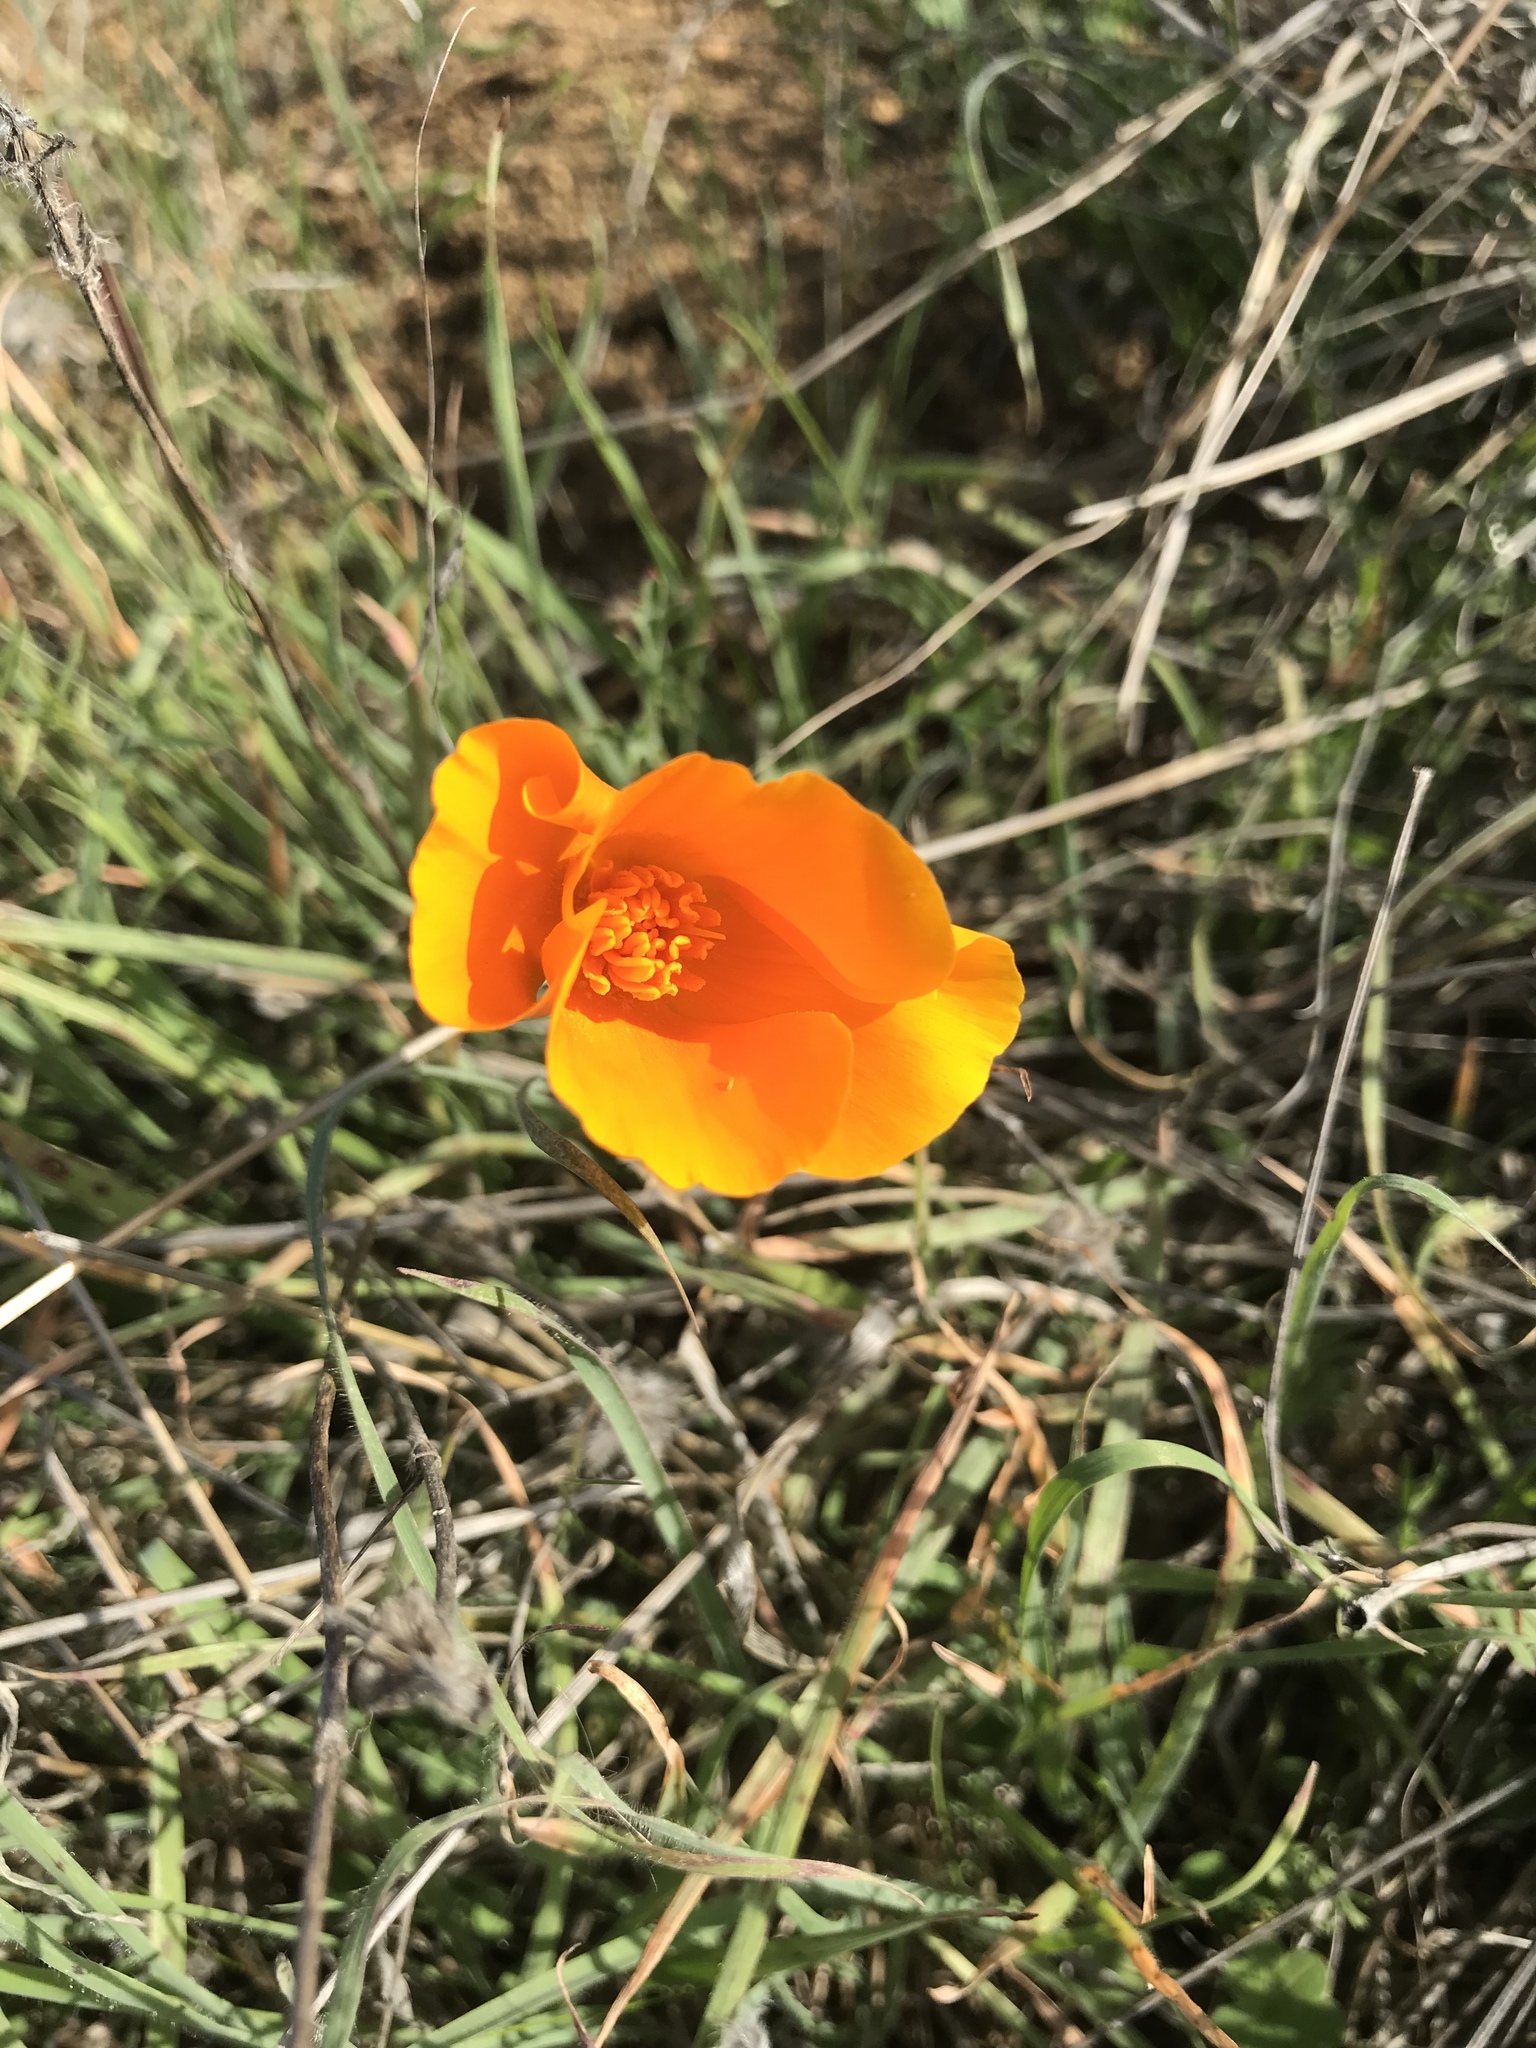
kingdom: Plantae
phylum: Tracheophyta
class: Magnoliopsida
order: Ranunculales
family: Papaveraceae
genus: Eschscholzia
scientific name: Eschscholzia californica
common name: California poppy
